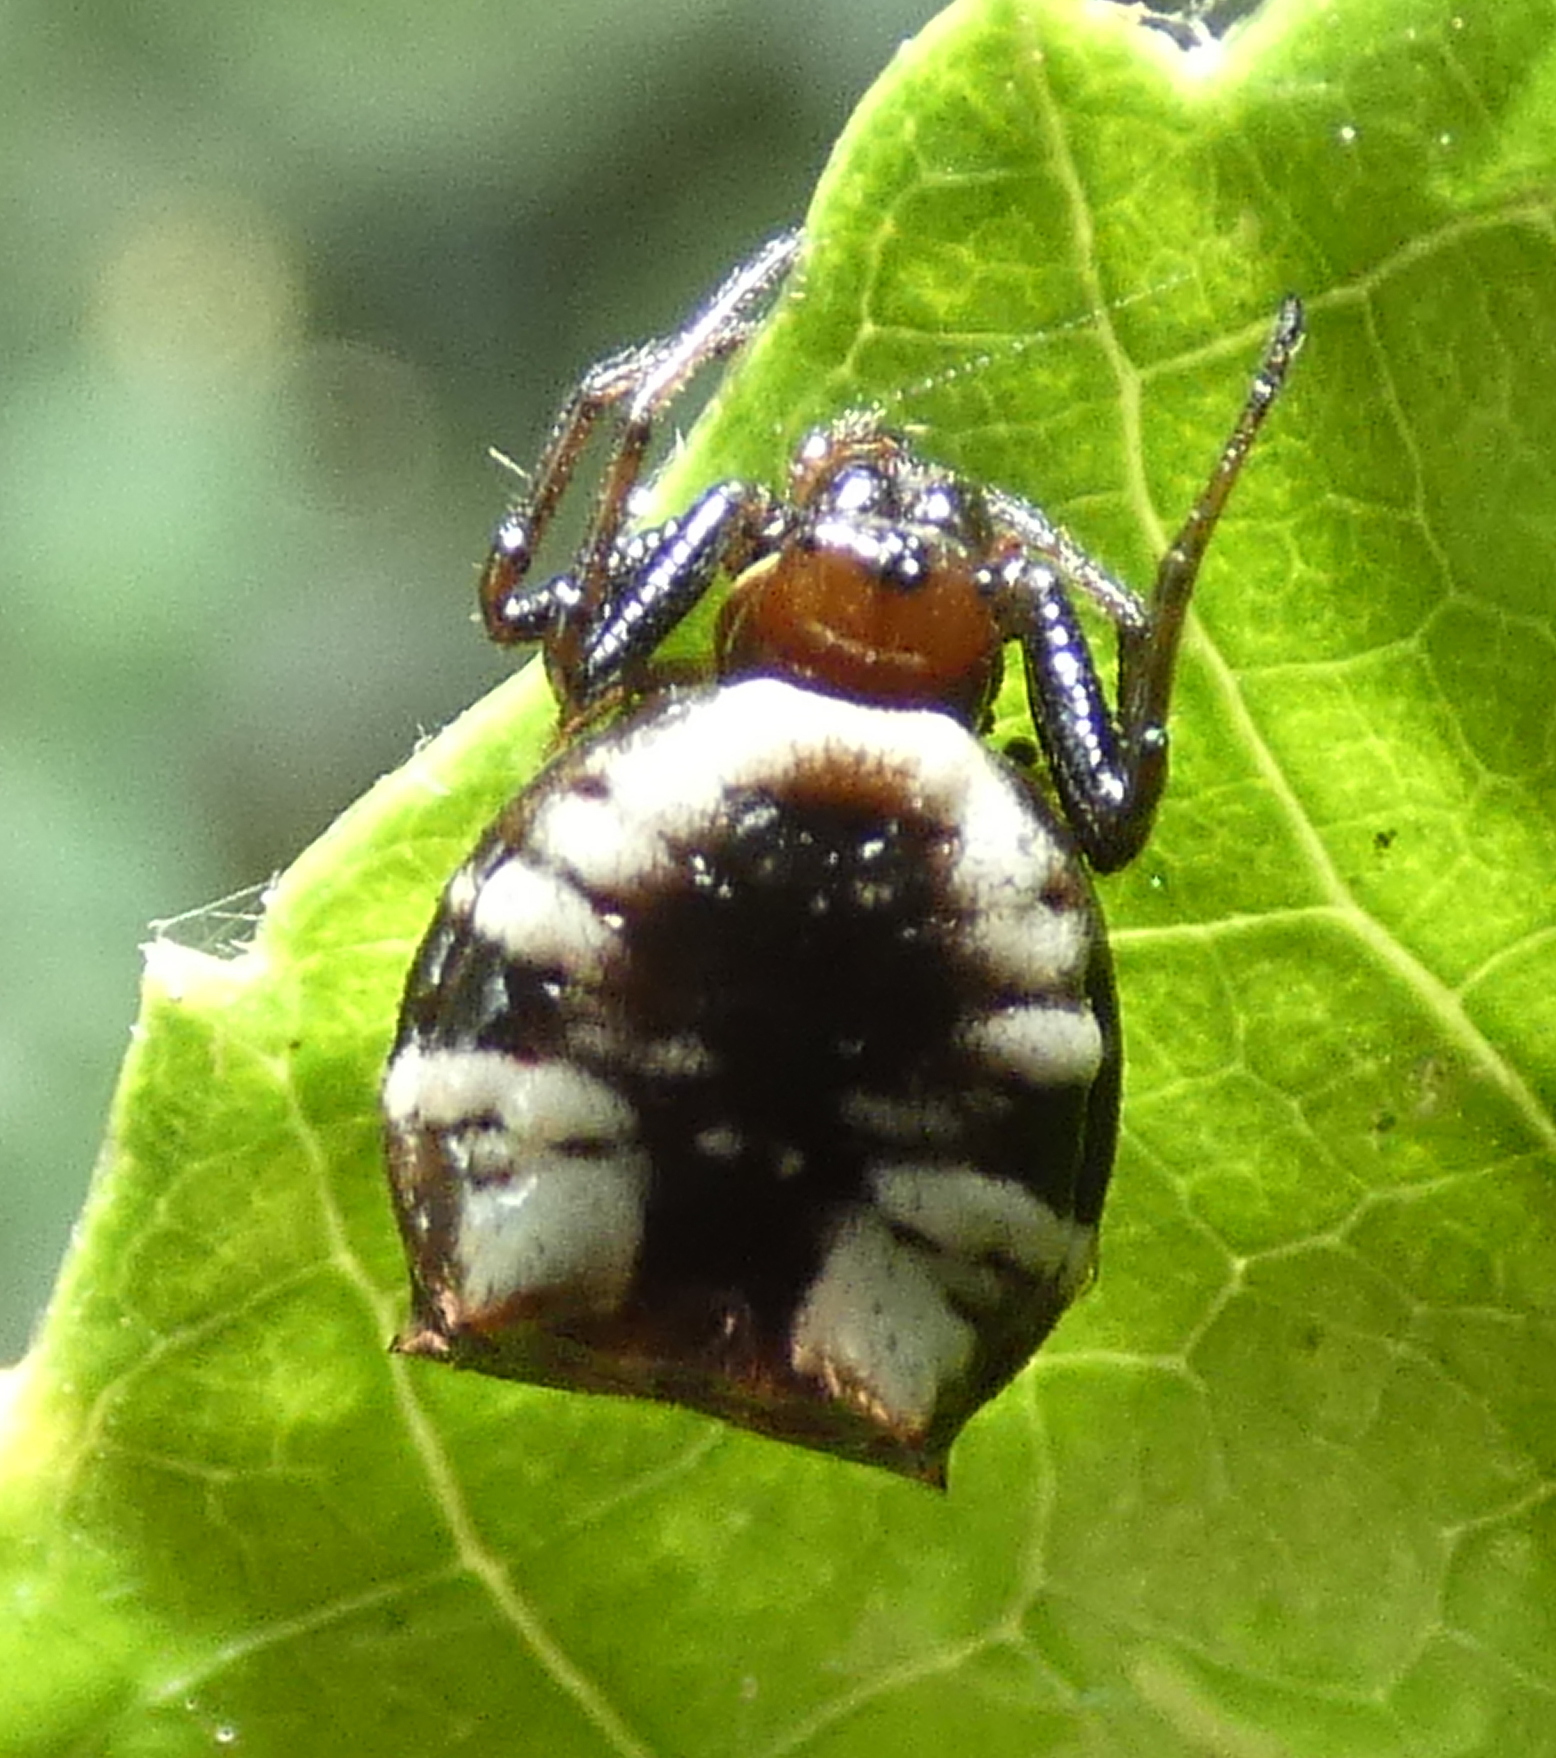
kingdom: Animalia
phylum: Arthropoda
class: Arachnida
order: Araneae
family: Araneidae
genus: Micrathena
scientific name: Micrathena patruelis
